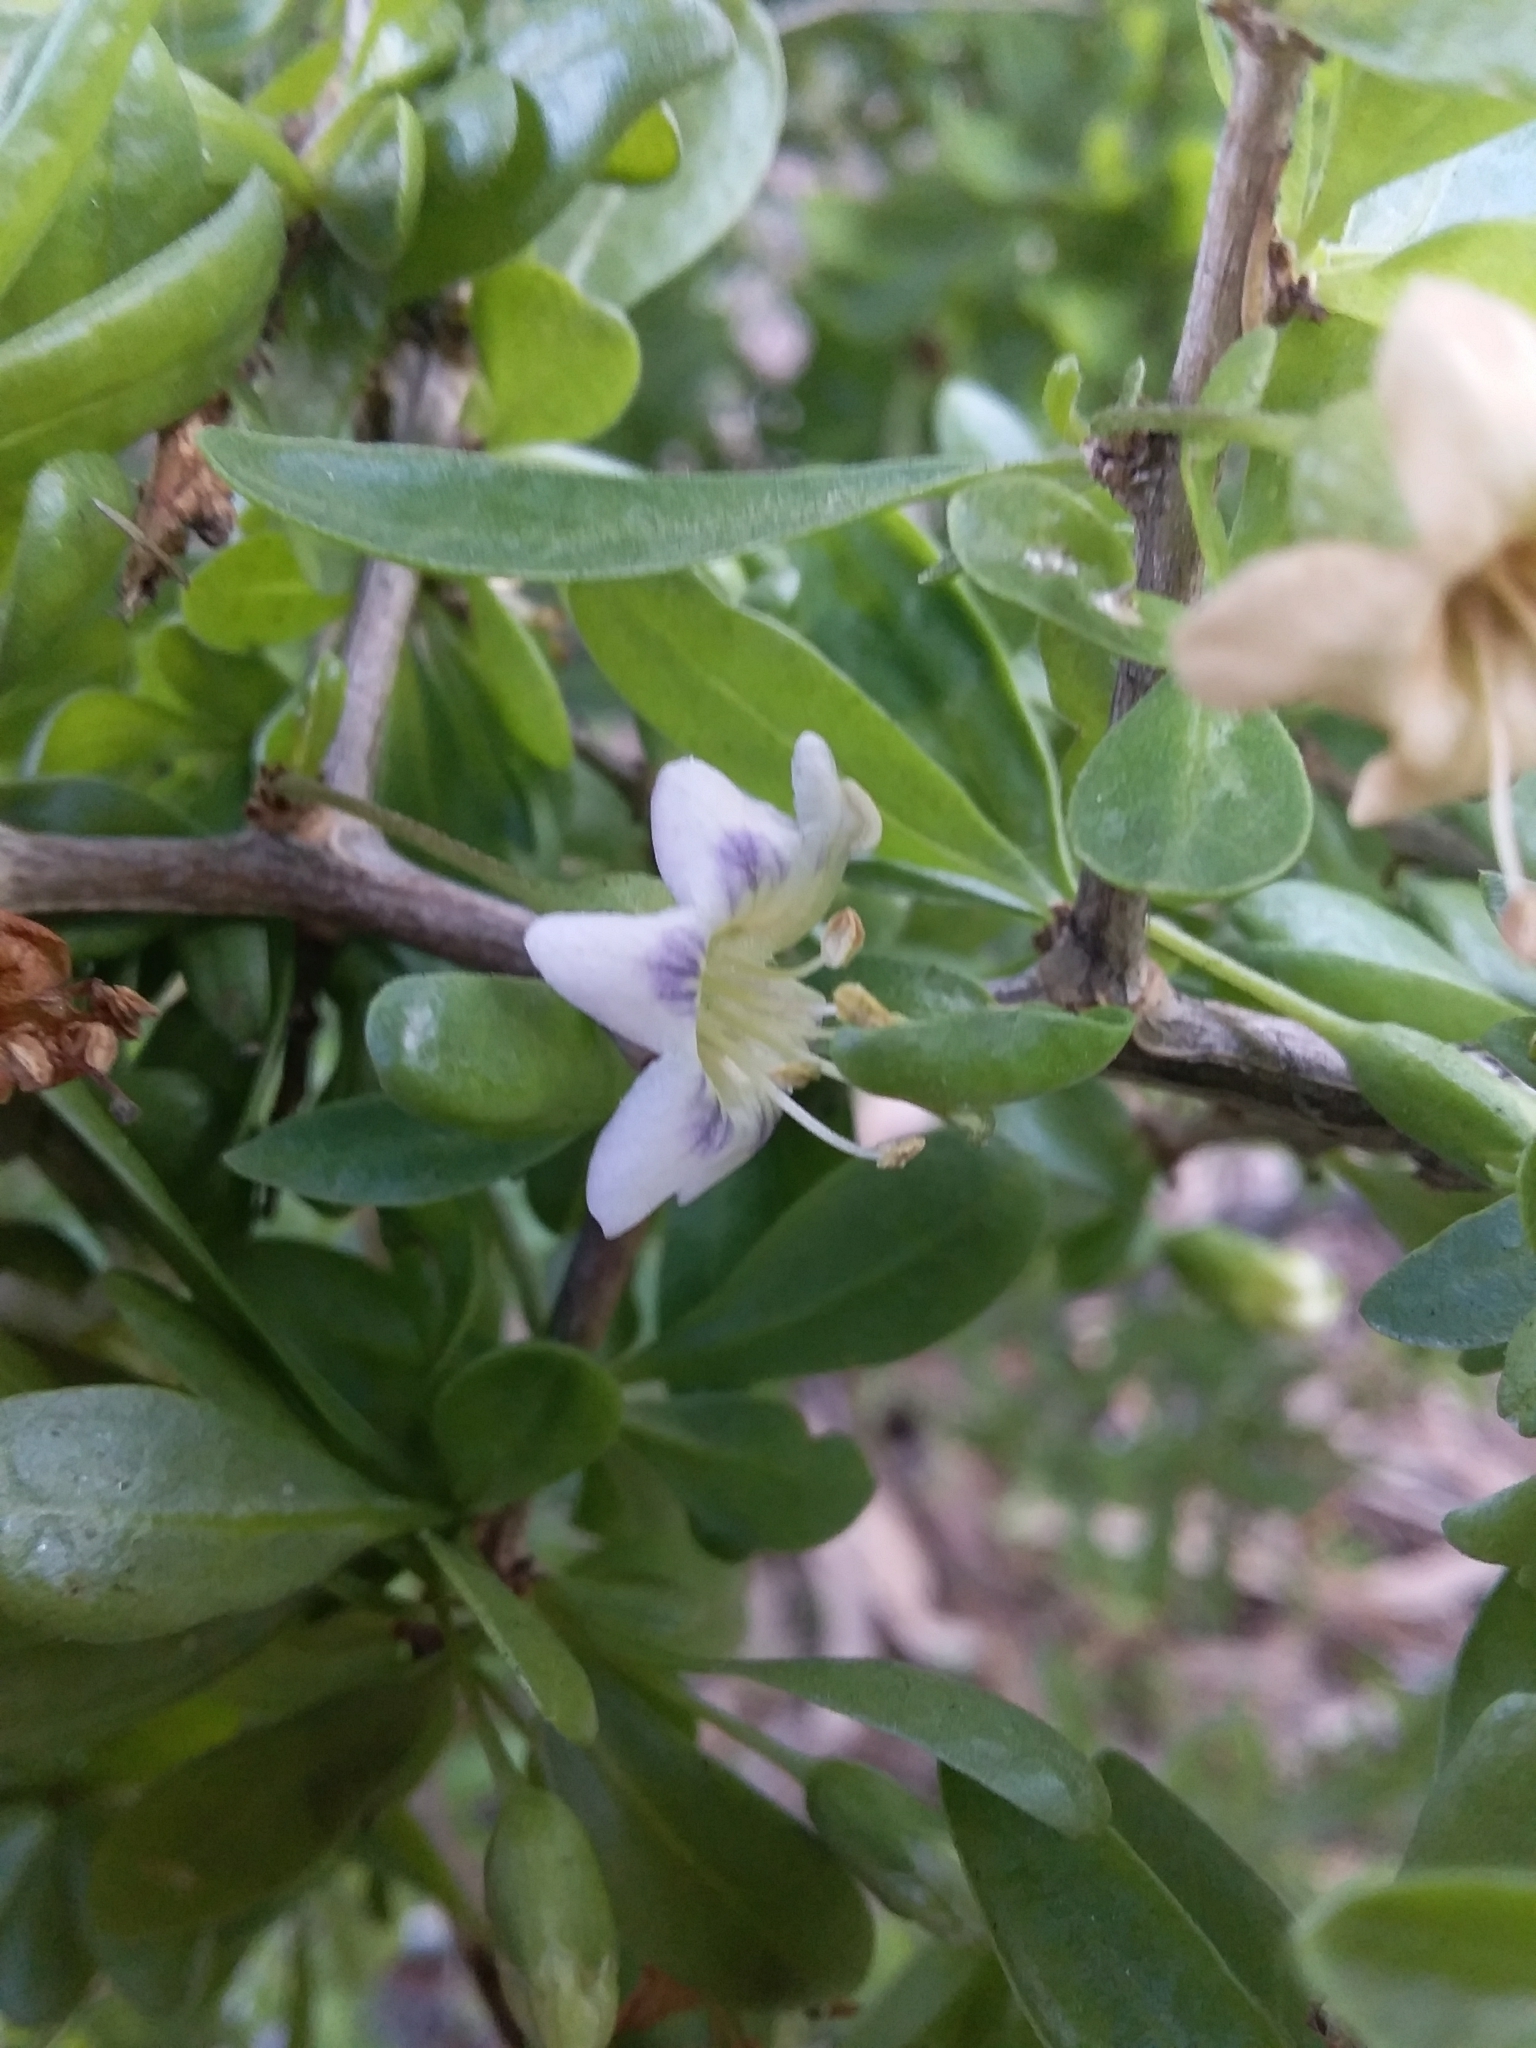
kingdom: Plantae
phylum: Tracheophyta
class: Magnoliopsida
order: Solanales
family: Solanaceae
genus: Lycium
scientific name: Lycium ferocissimum
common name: African boxthorn
